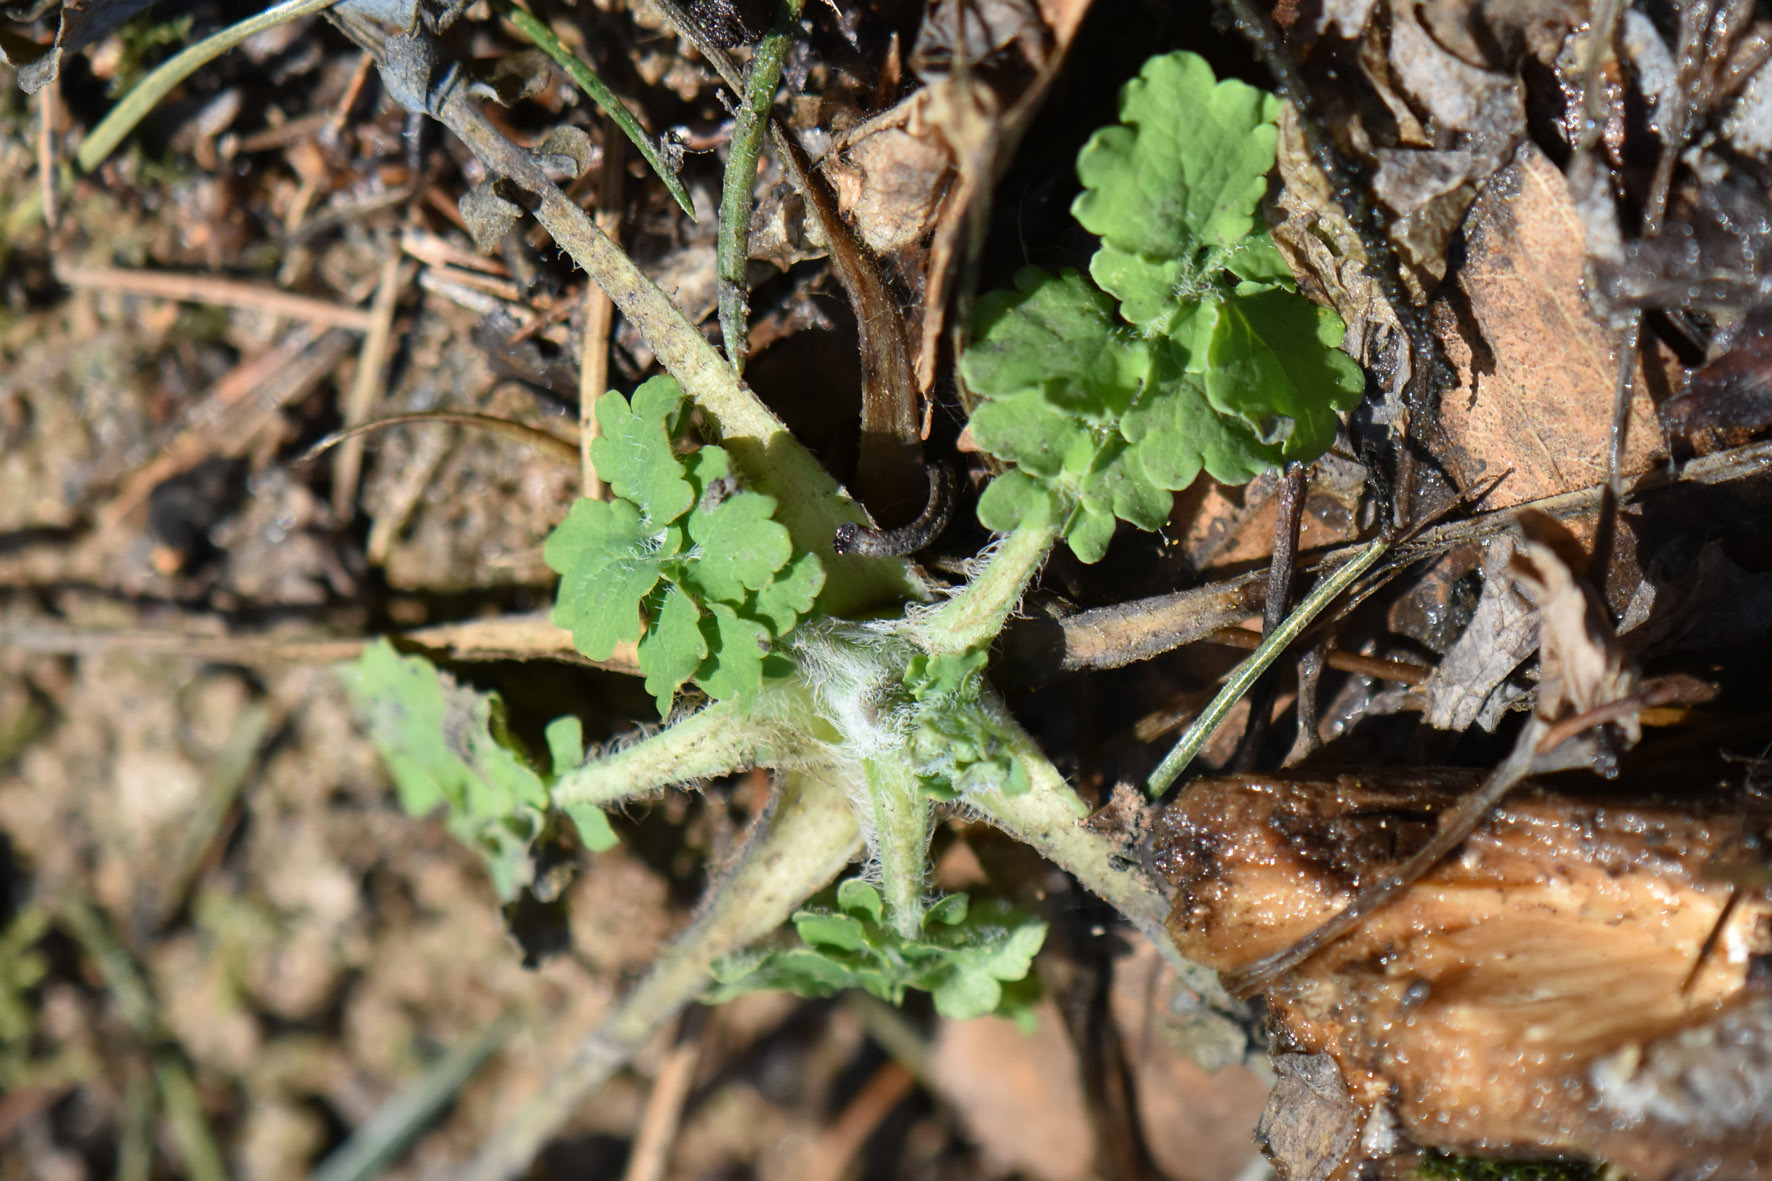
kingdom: Plantae
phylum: Tracheophyta
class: Magnoliopsida
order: Ranunculales
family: Papaveraceae
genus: Chelidonium
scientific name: Chelidonium majus
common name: Greater celandine
